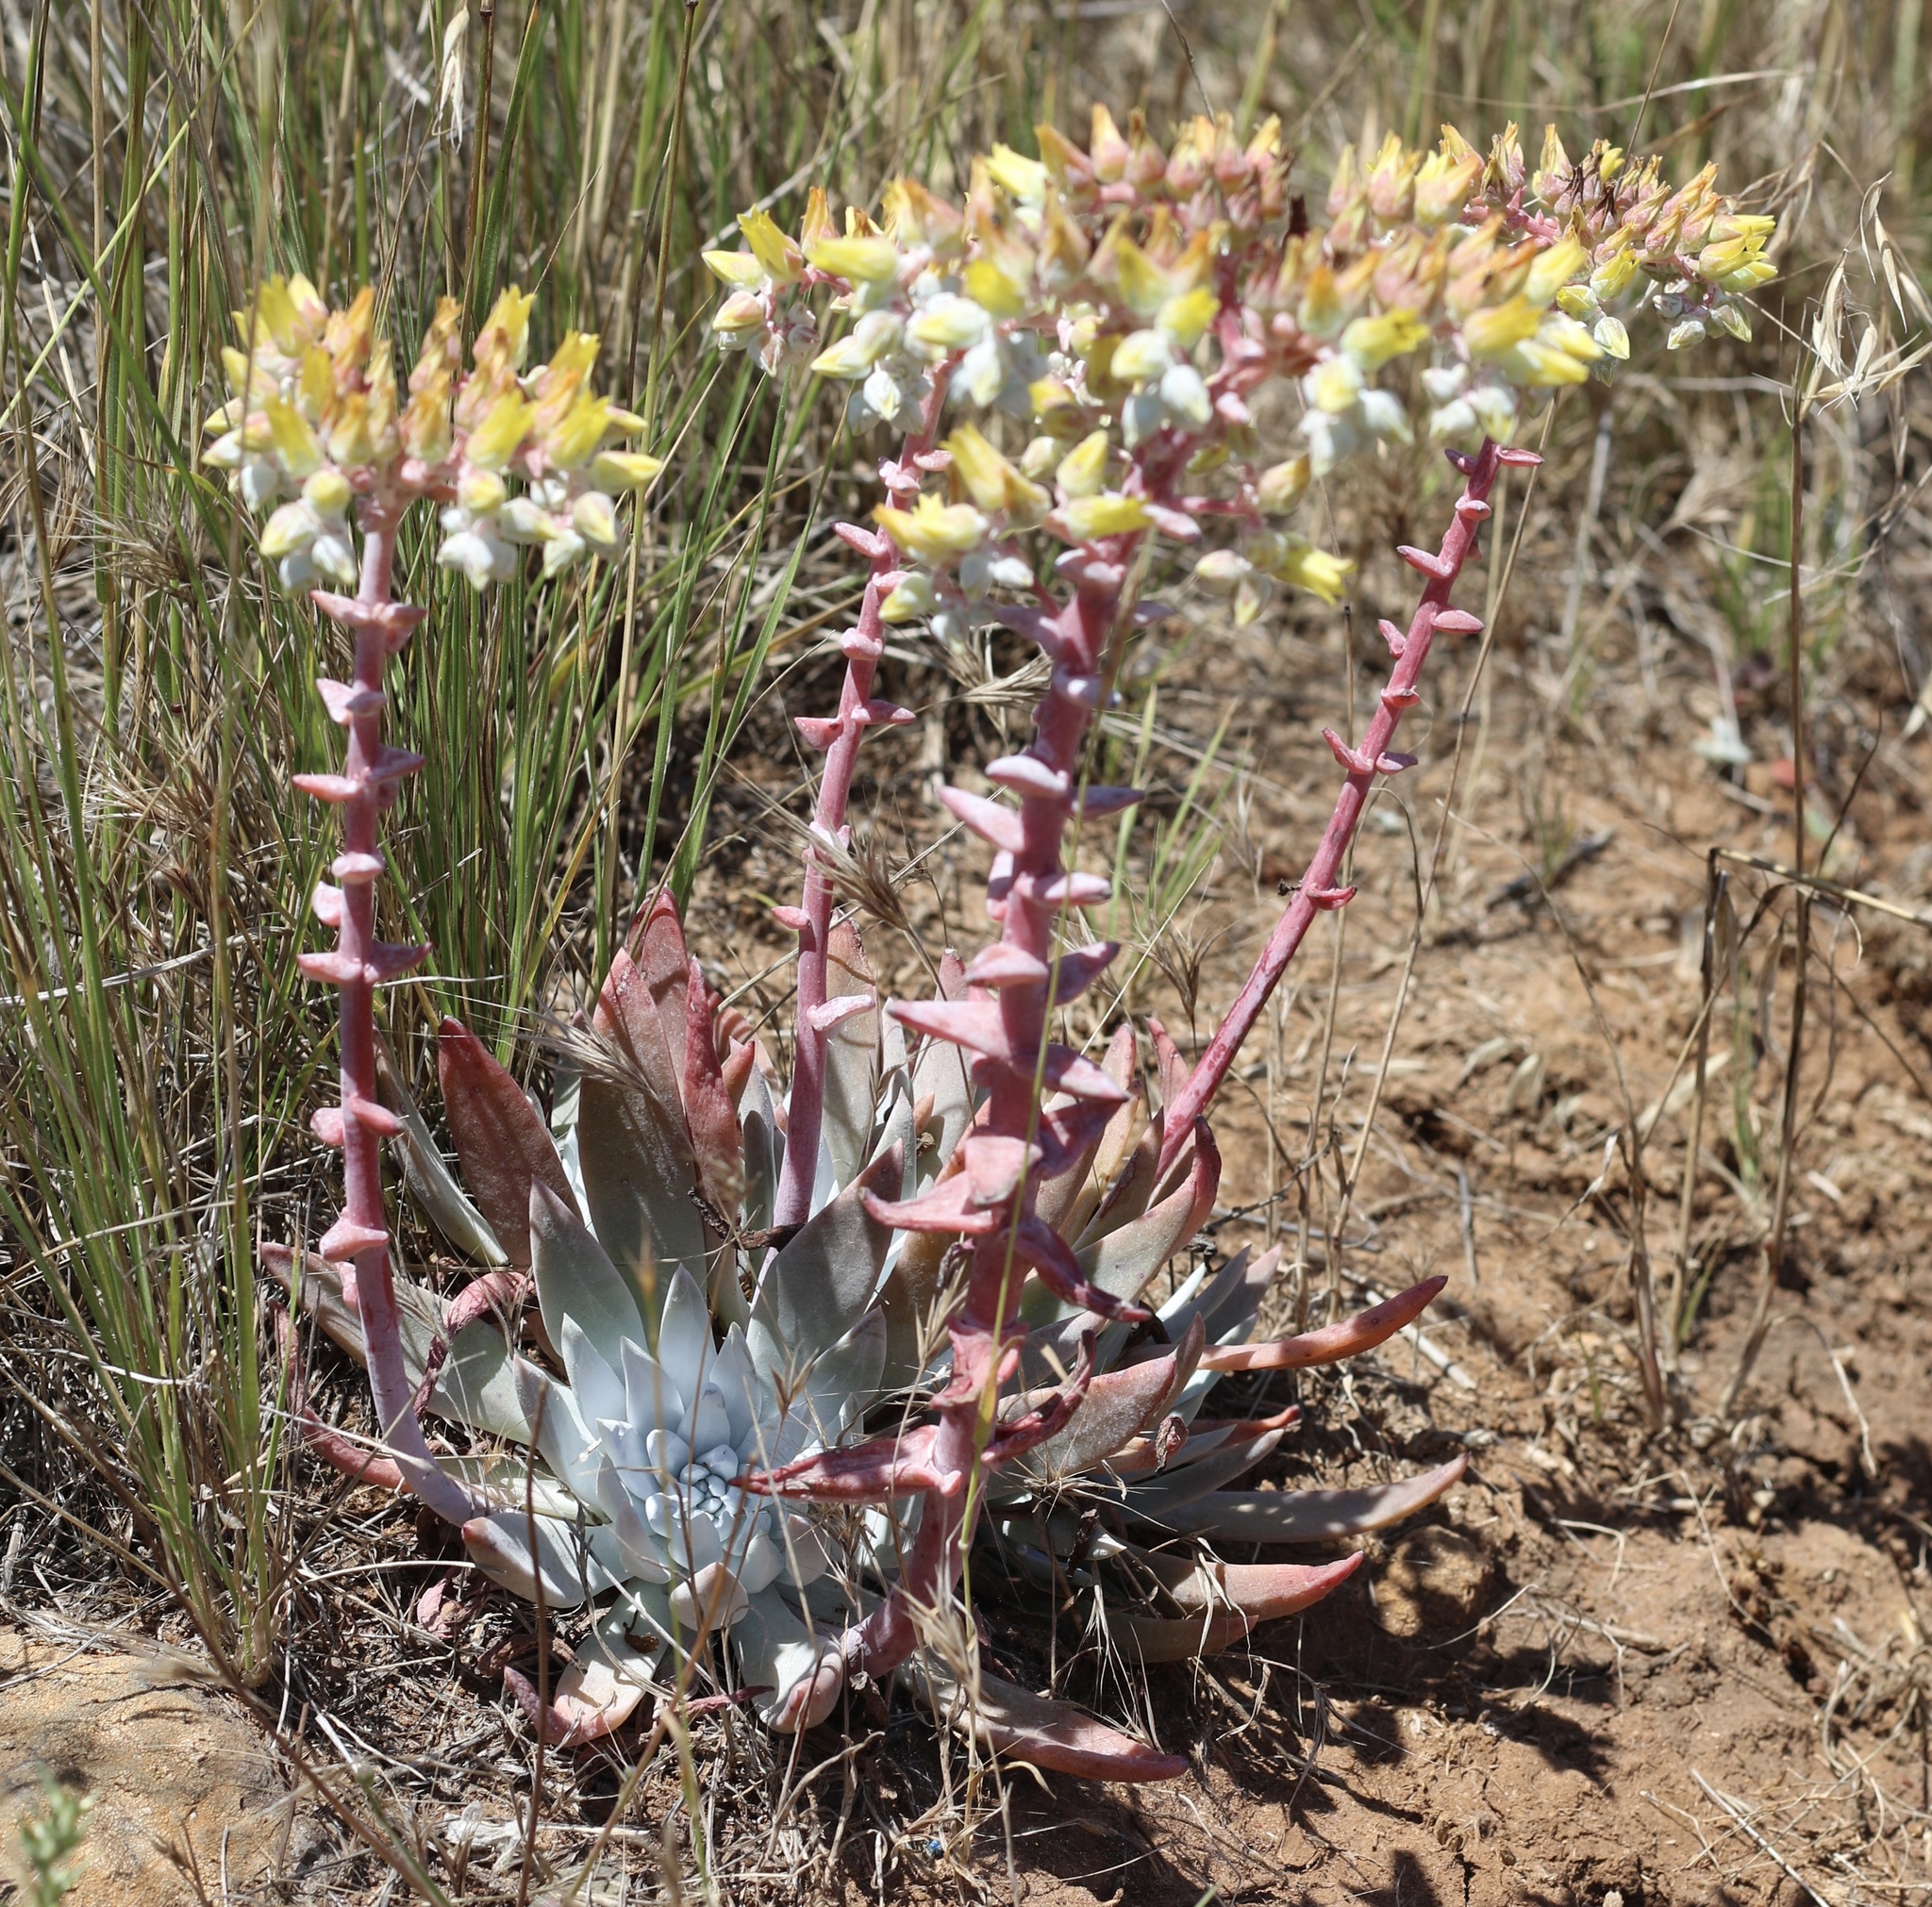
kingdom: Plantae
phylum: Tracheophyta
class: Magnoliopsida
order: Saxifragales
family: Crassulaceae
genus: Dudleya
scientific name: Dudleya greenei
